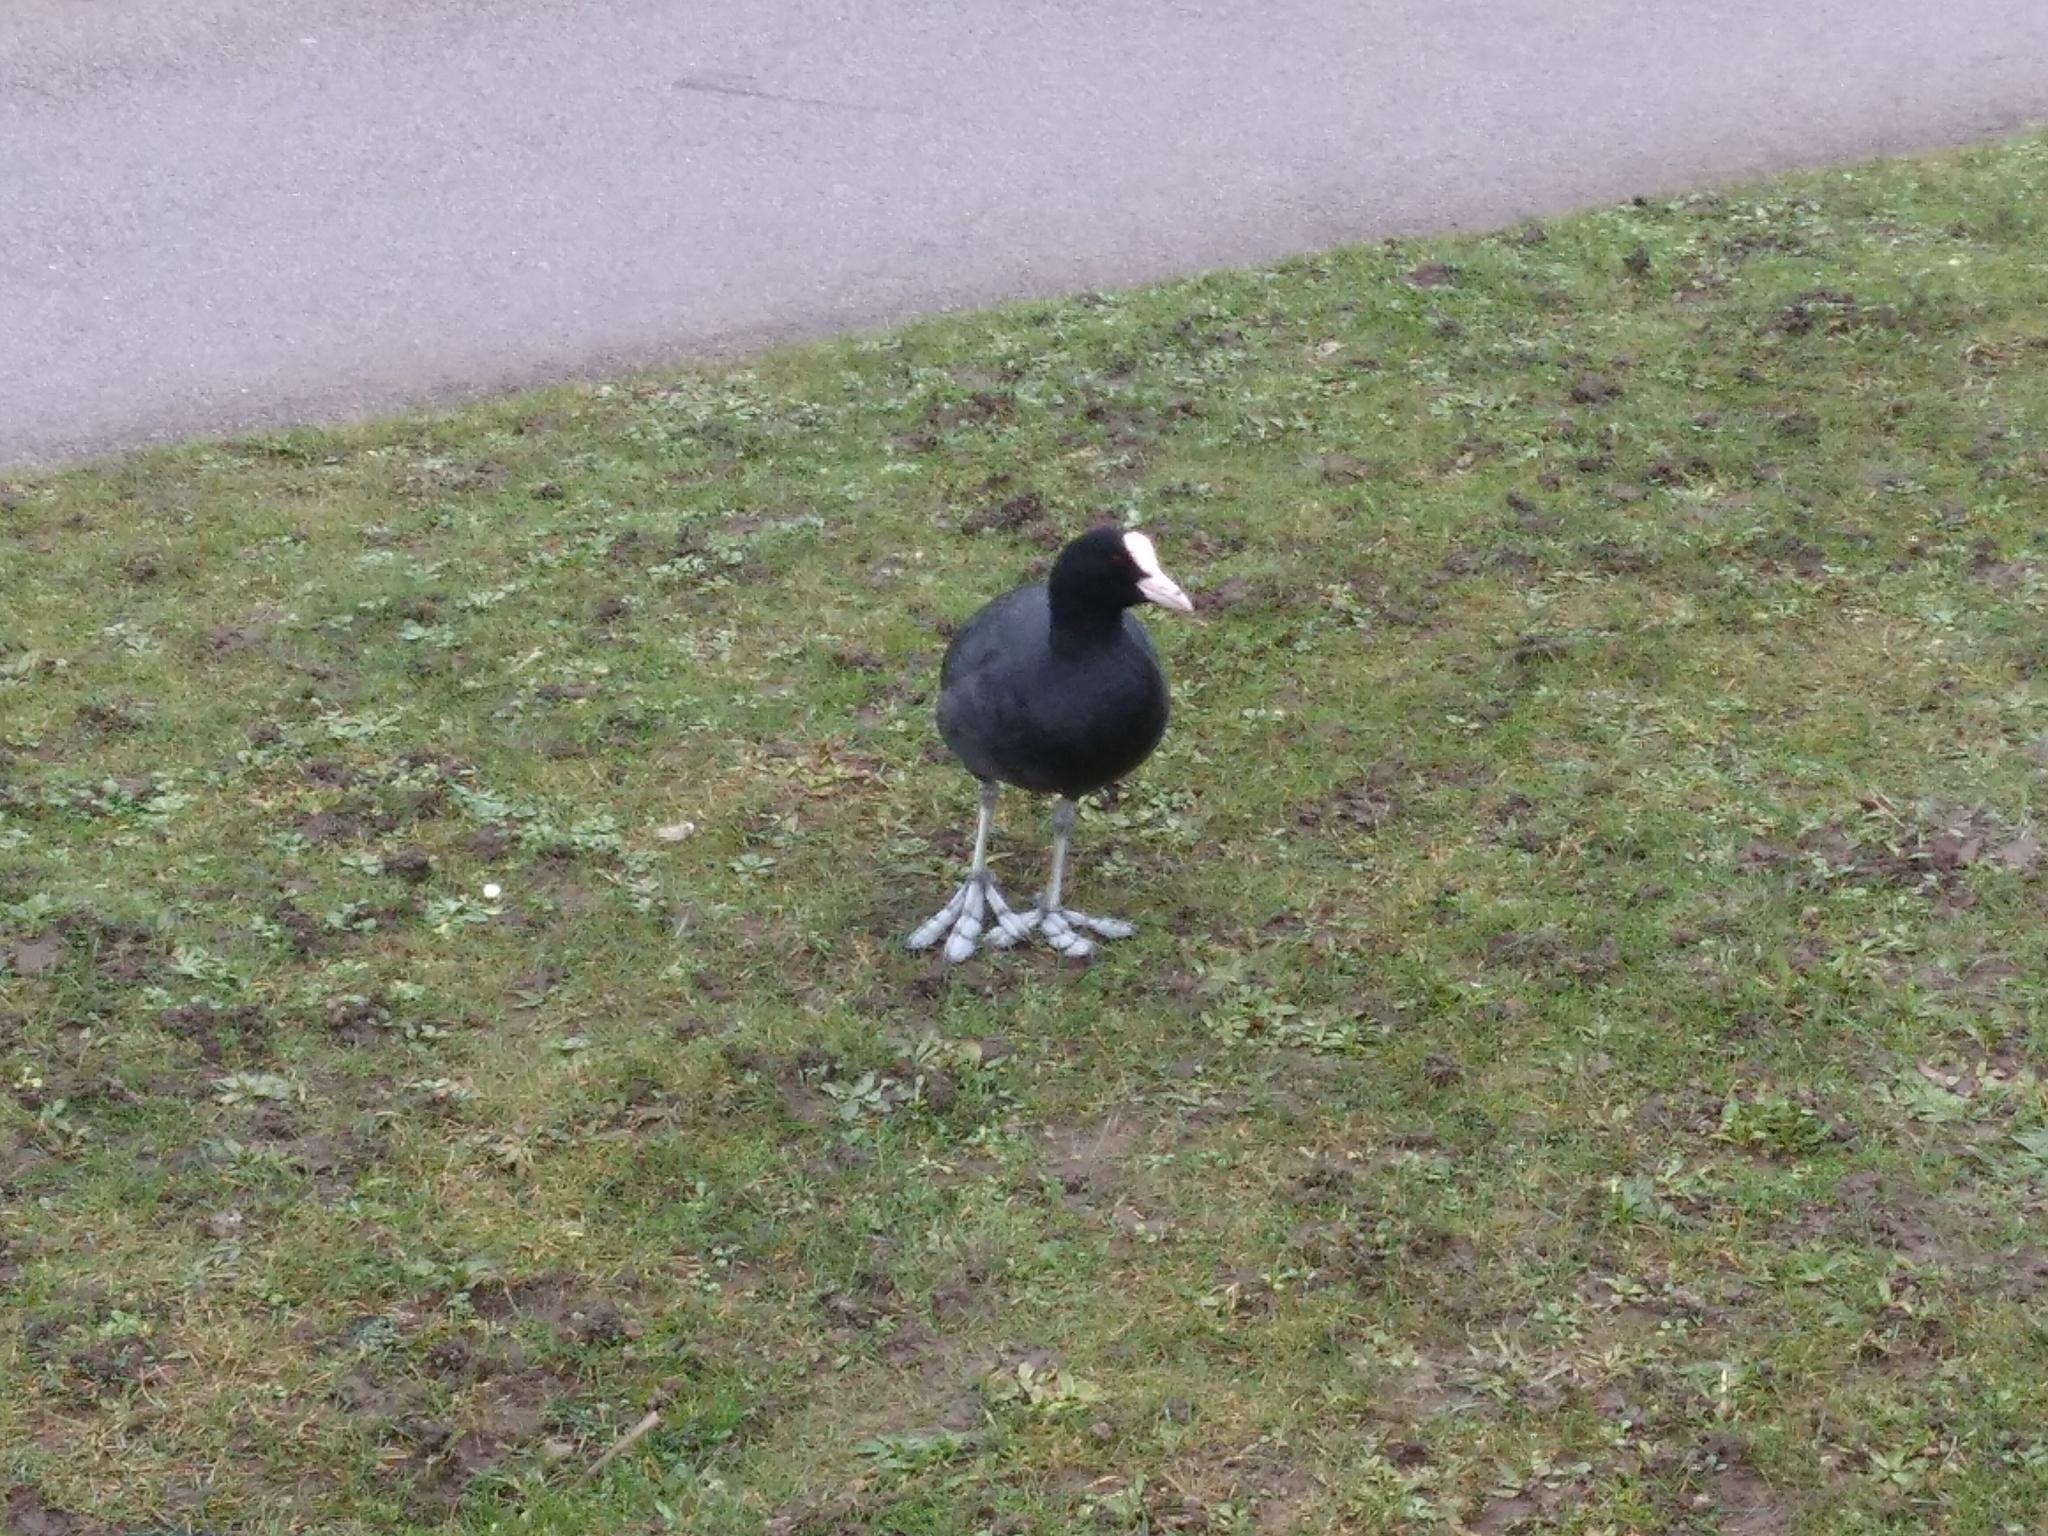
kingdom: Animalia
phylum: Chordata
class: Aves
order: Gruiformes
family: Rallidae
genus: Fulica
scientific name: Fulica atra
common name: Eurasian coot
